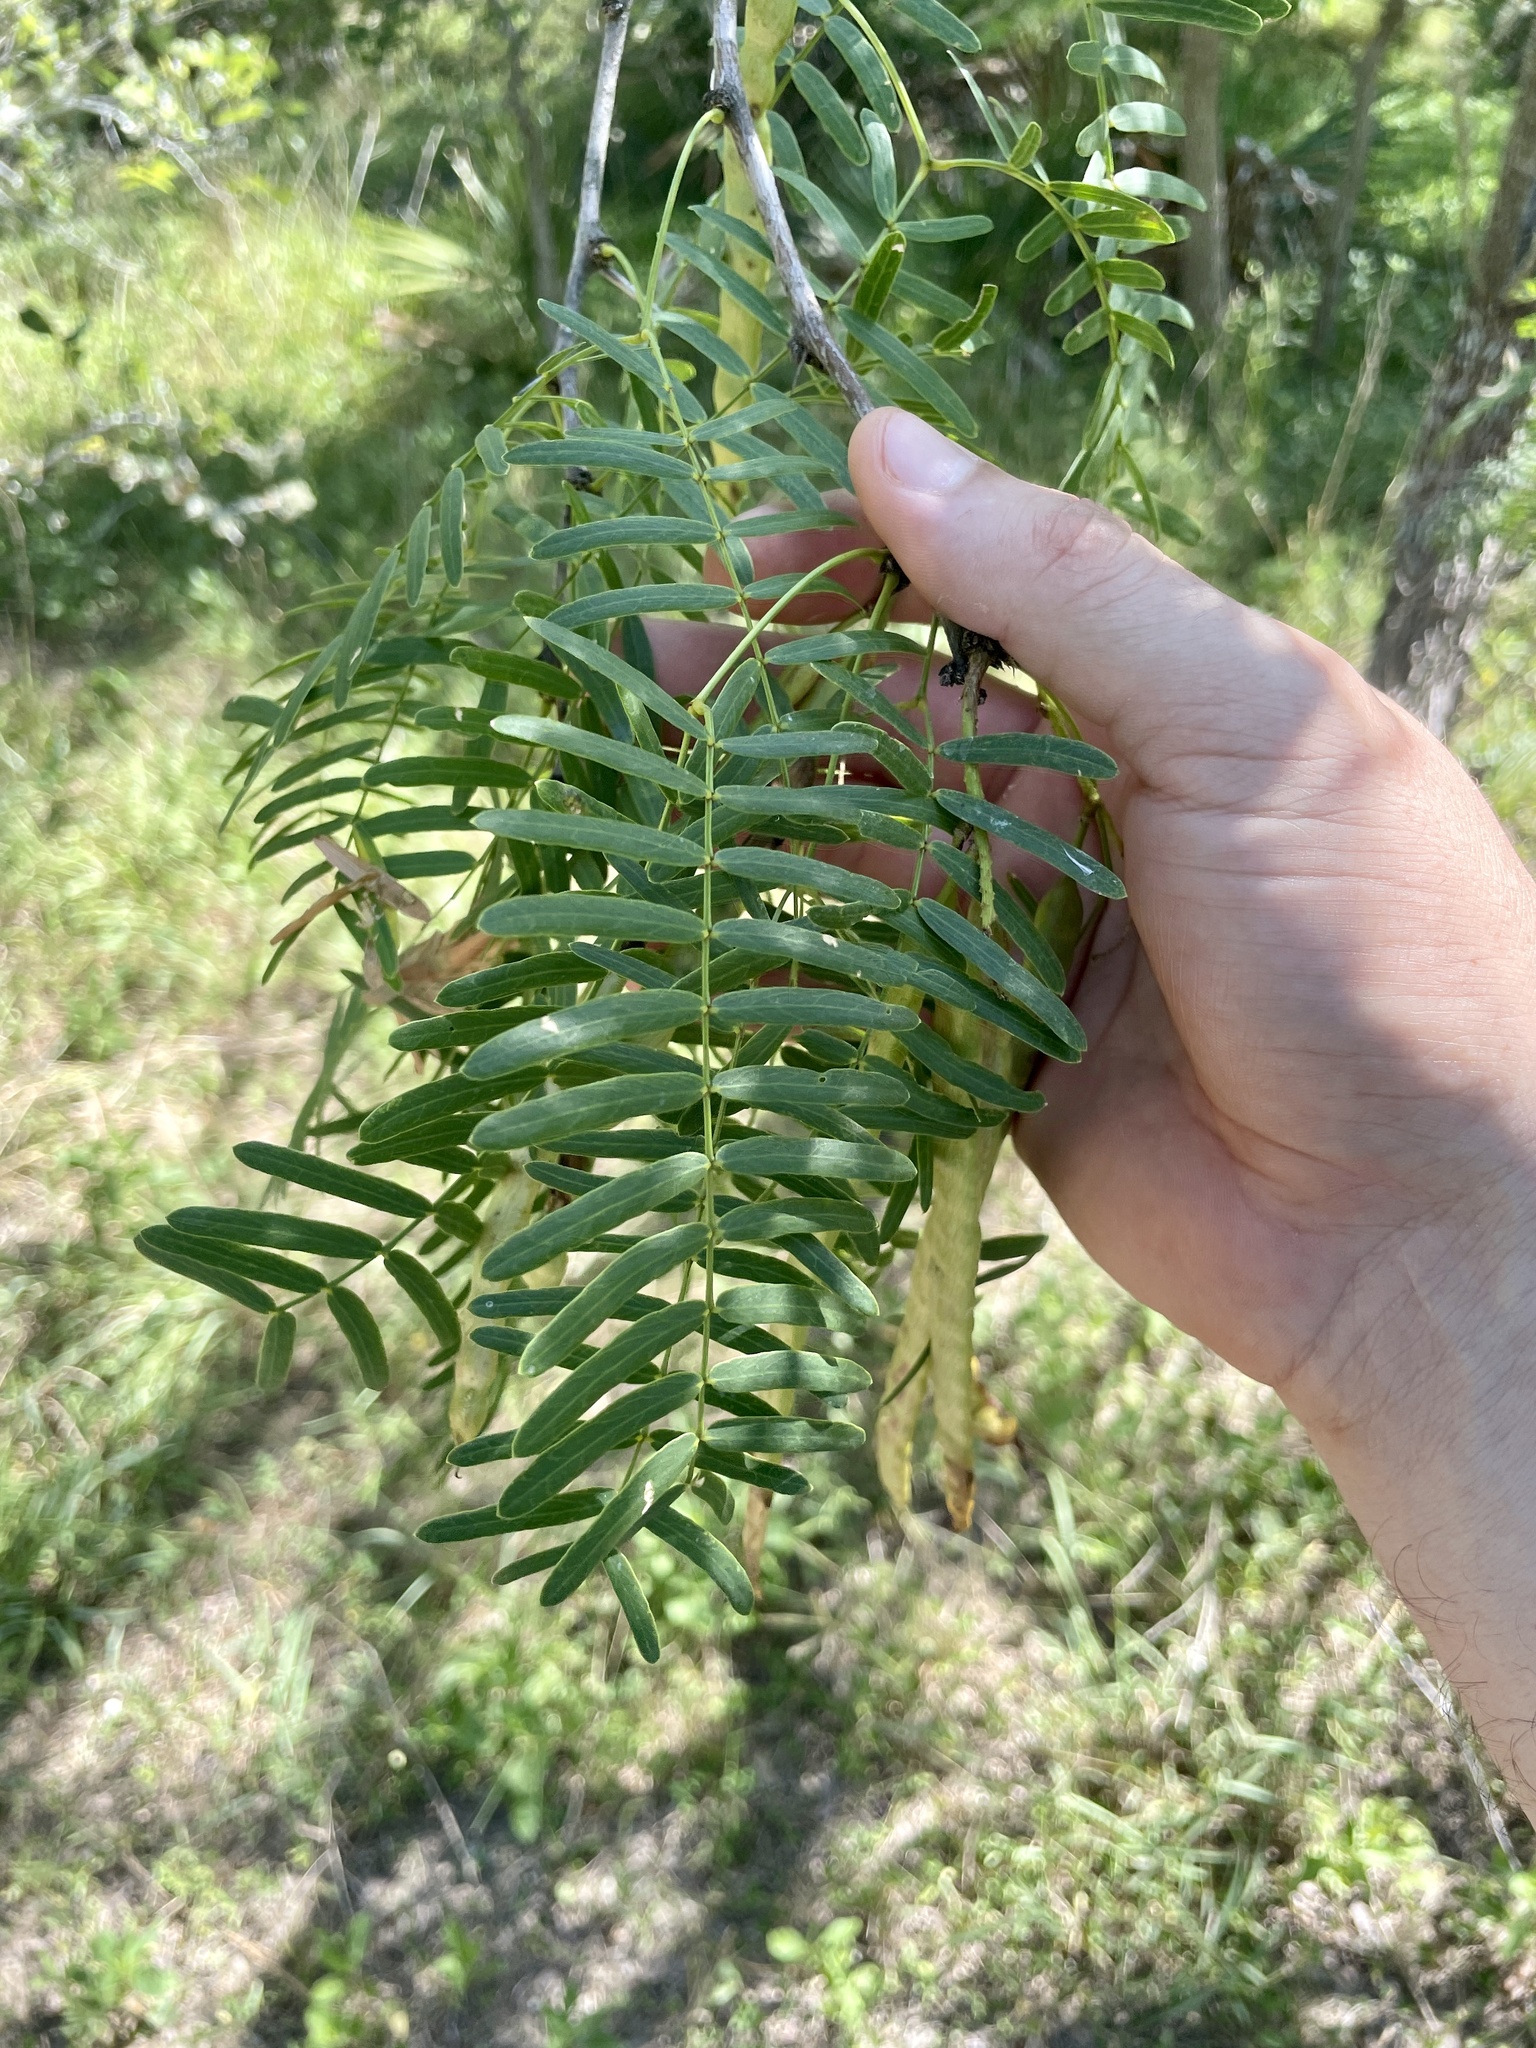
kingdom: Plantae
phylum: Tracheophyta
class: Magnoliopsida
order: Fabales
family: Fabaceae
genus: Prosopis
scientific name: Prosopis glandulosa
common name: Honey mesquite
